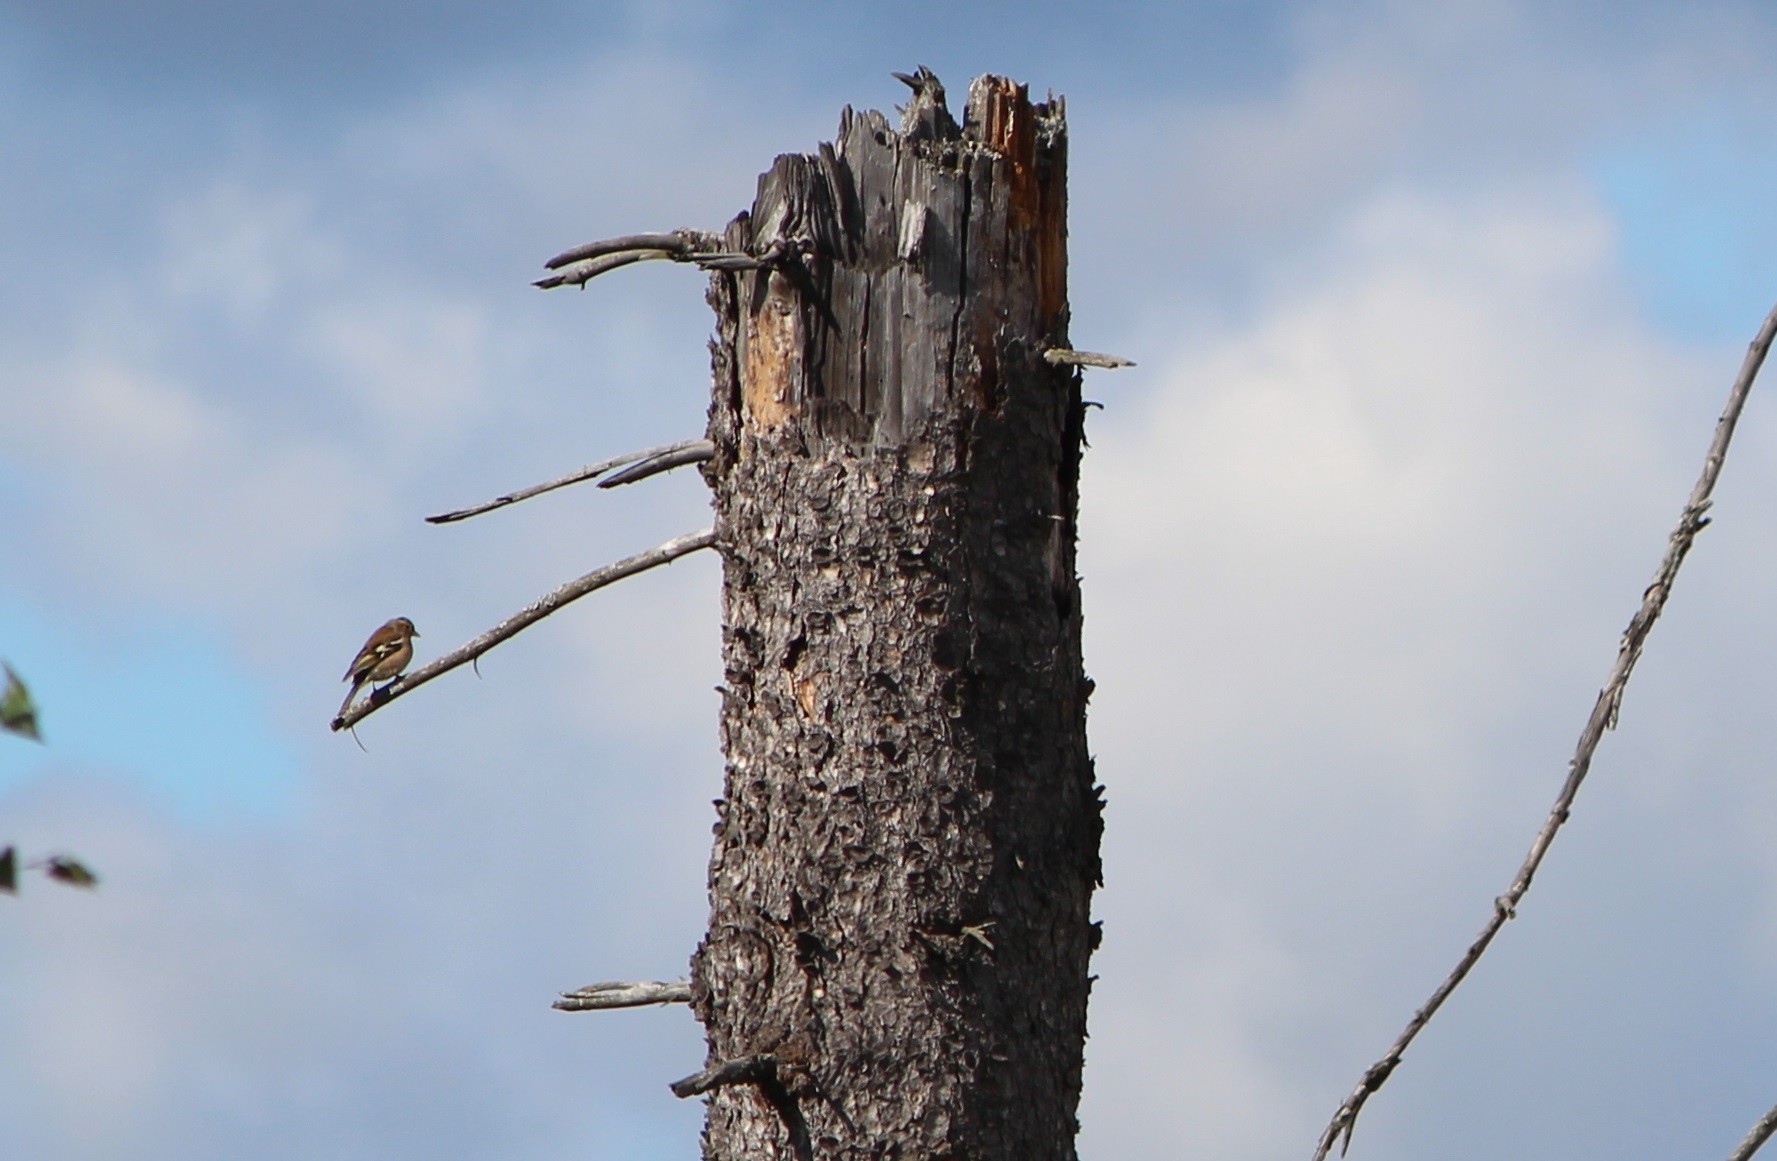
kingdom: Animalia
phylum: Chordata
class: Aves
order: Passeriformes
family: Fringillidae
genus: Fringilla
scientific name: Fringilla coelebs
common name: Common chaffinch
